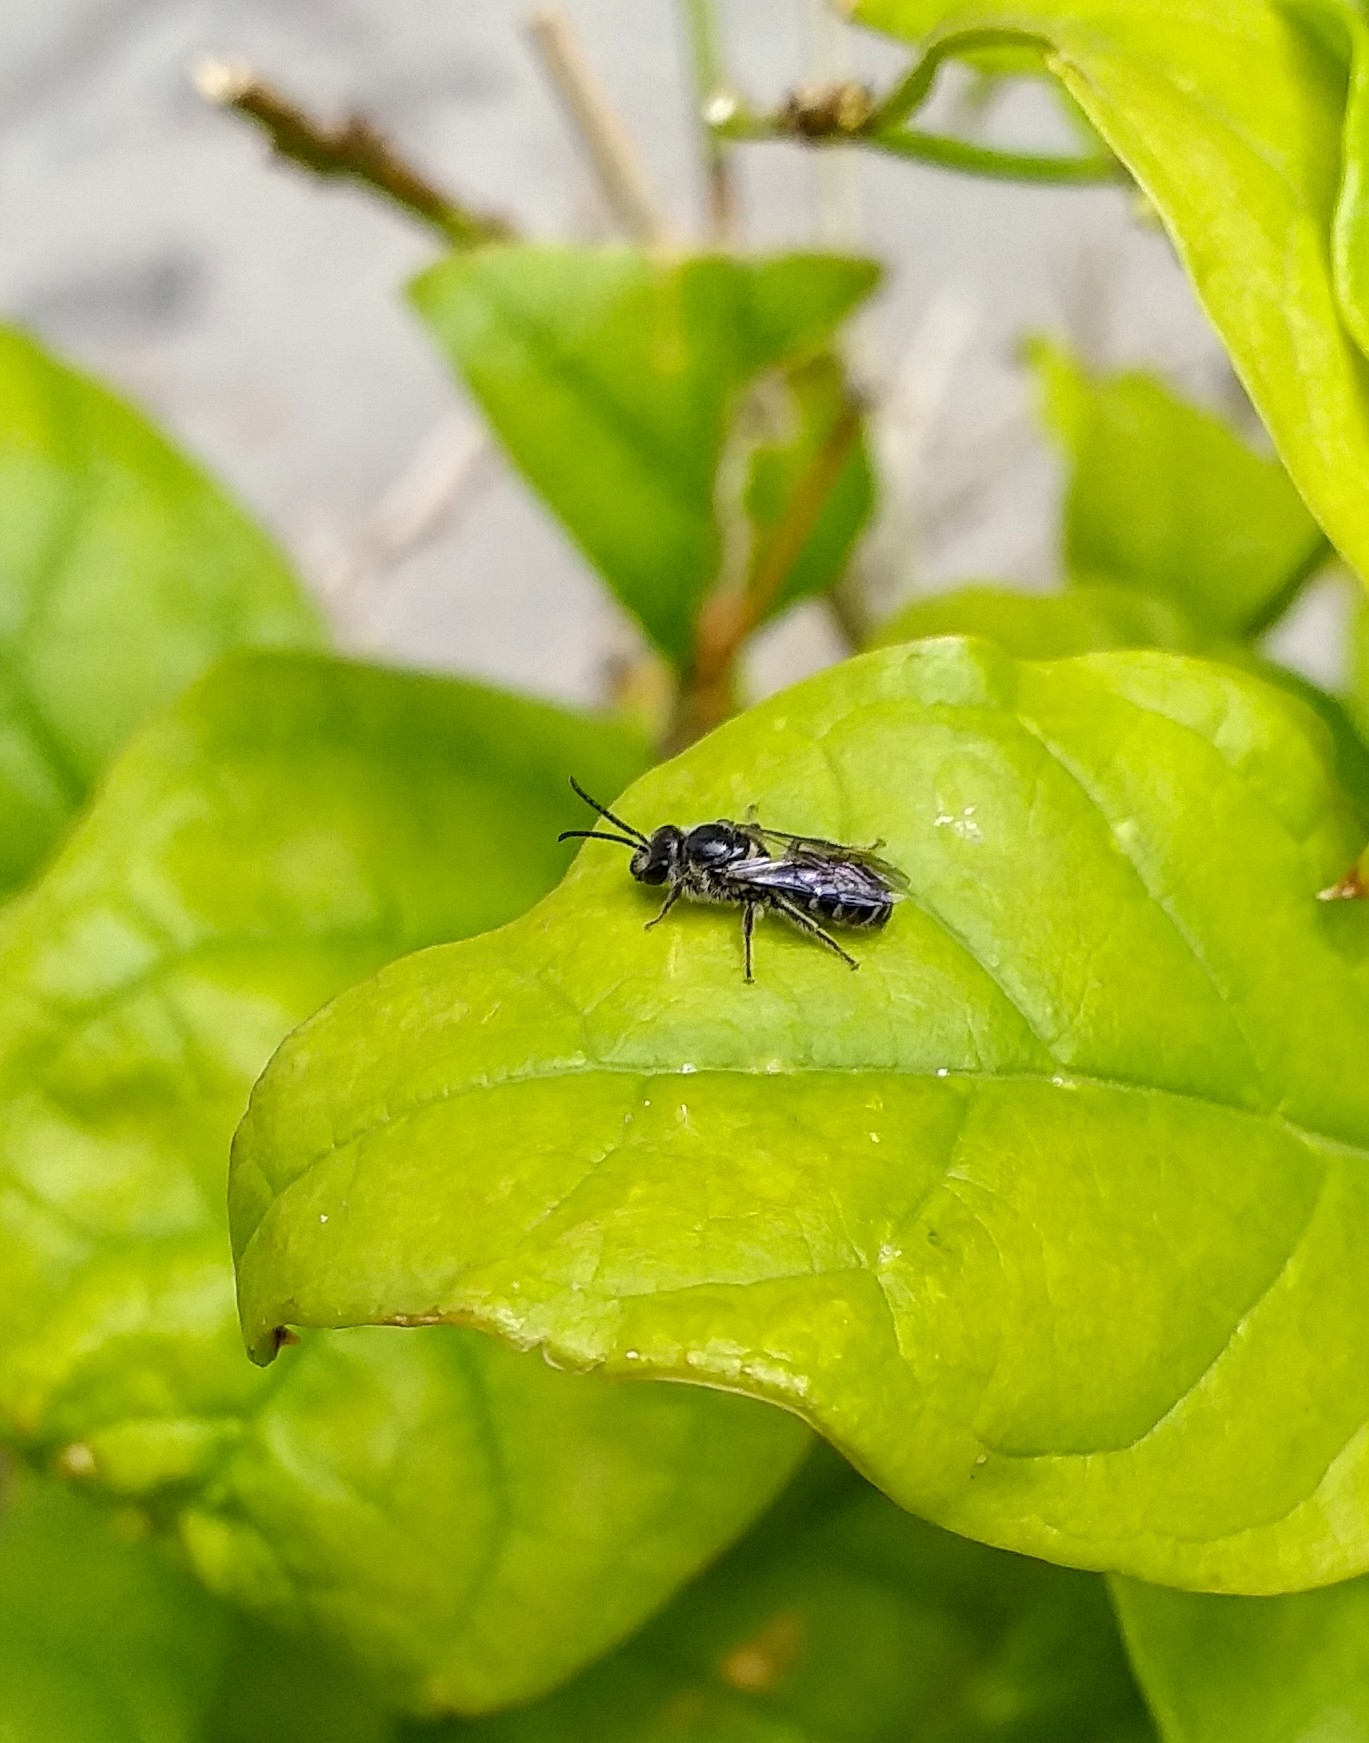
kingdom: Animalia
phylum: Arthropoda
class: Insecta
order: Hymenoptera
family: Halictidae
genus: Lasioglossum
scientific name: Lasioglossum albescens
